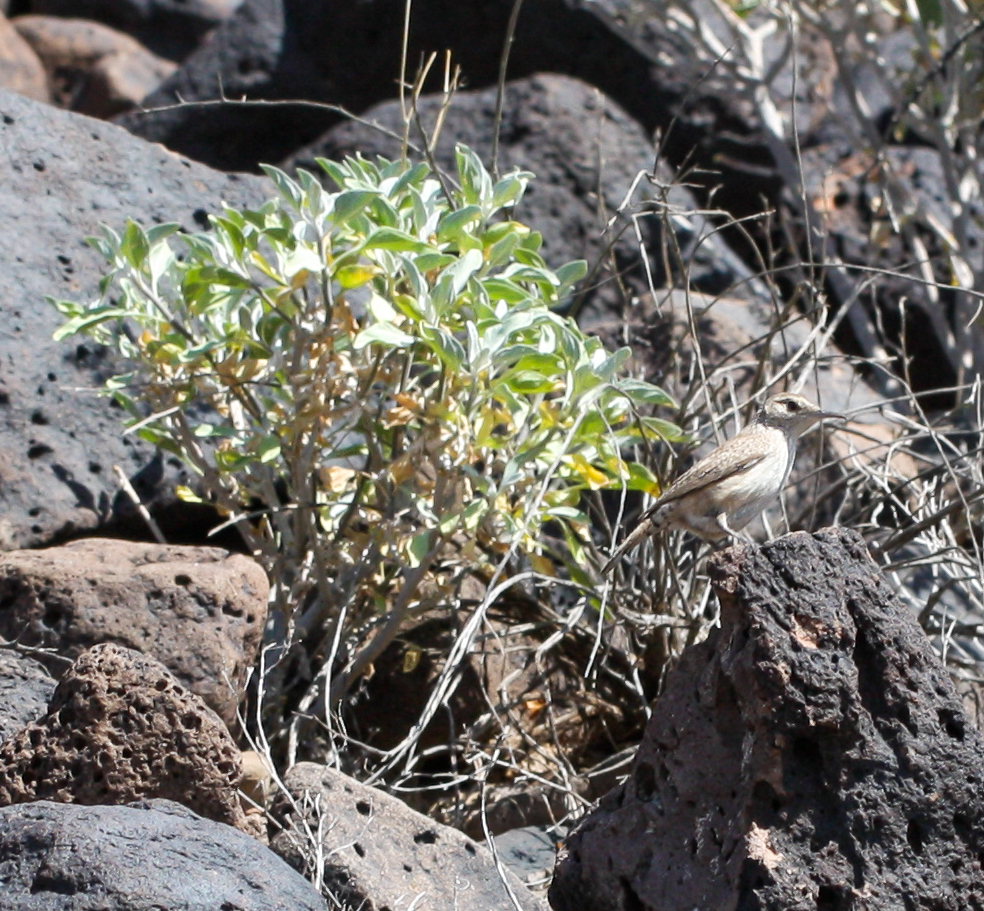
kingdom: Animalia
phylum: Chordata
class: Aves
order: Passeriformes
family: Troglodytidae
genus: Salpinctes
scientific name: Salpinctes obsoletus
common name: Rock wren
